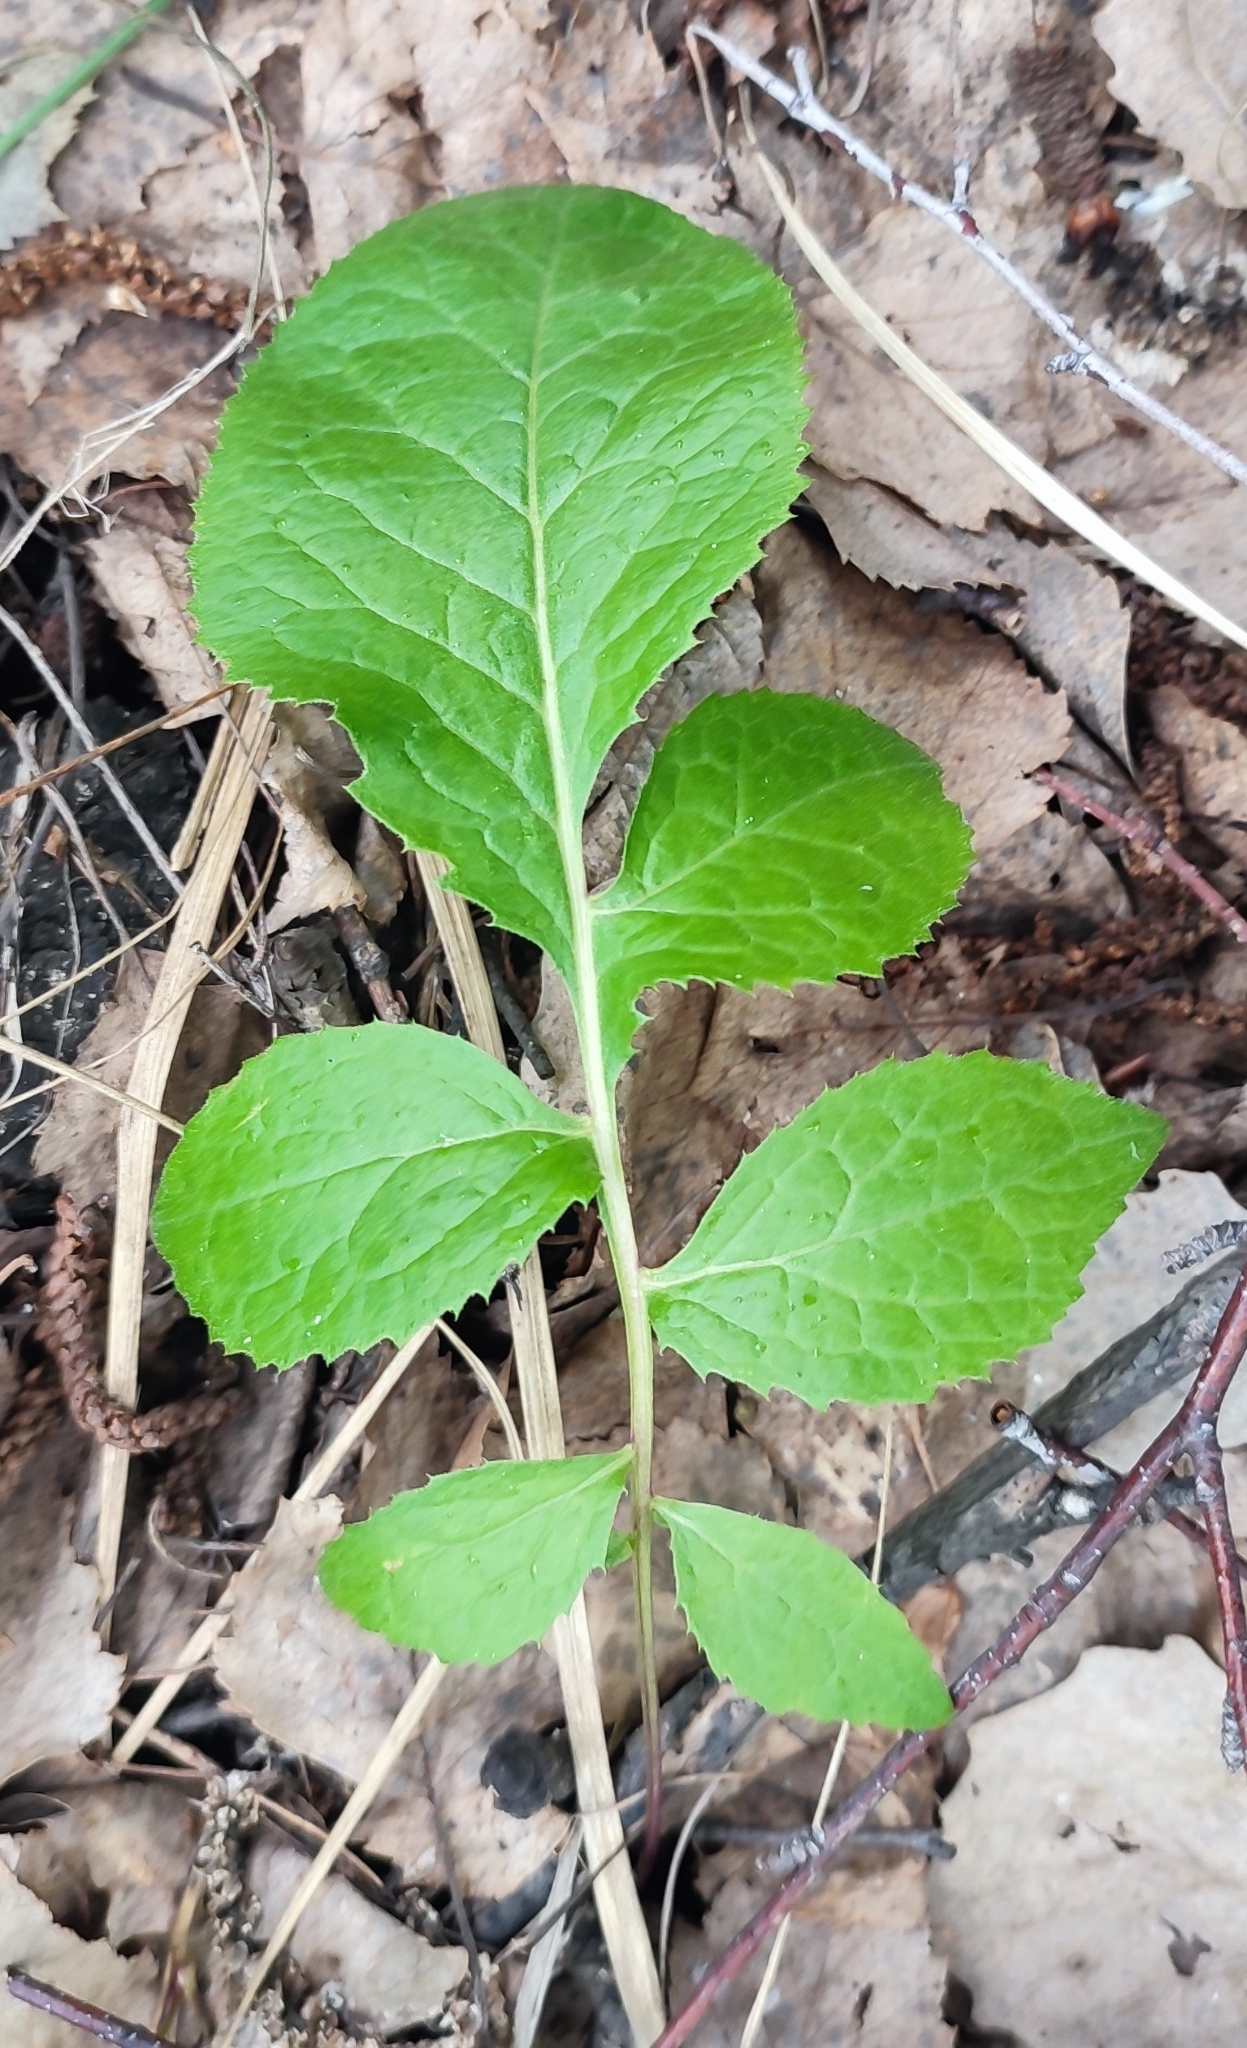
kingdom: Plantae
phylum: Tracheophyta
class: Magnoliopsida
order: Asterales
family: Asteraceae
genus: Serratula
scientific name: Serratula coronata
